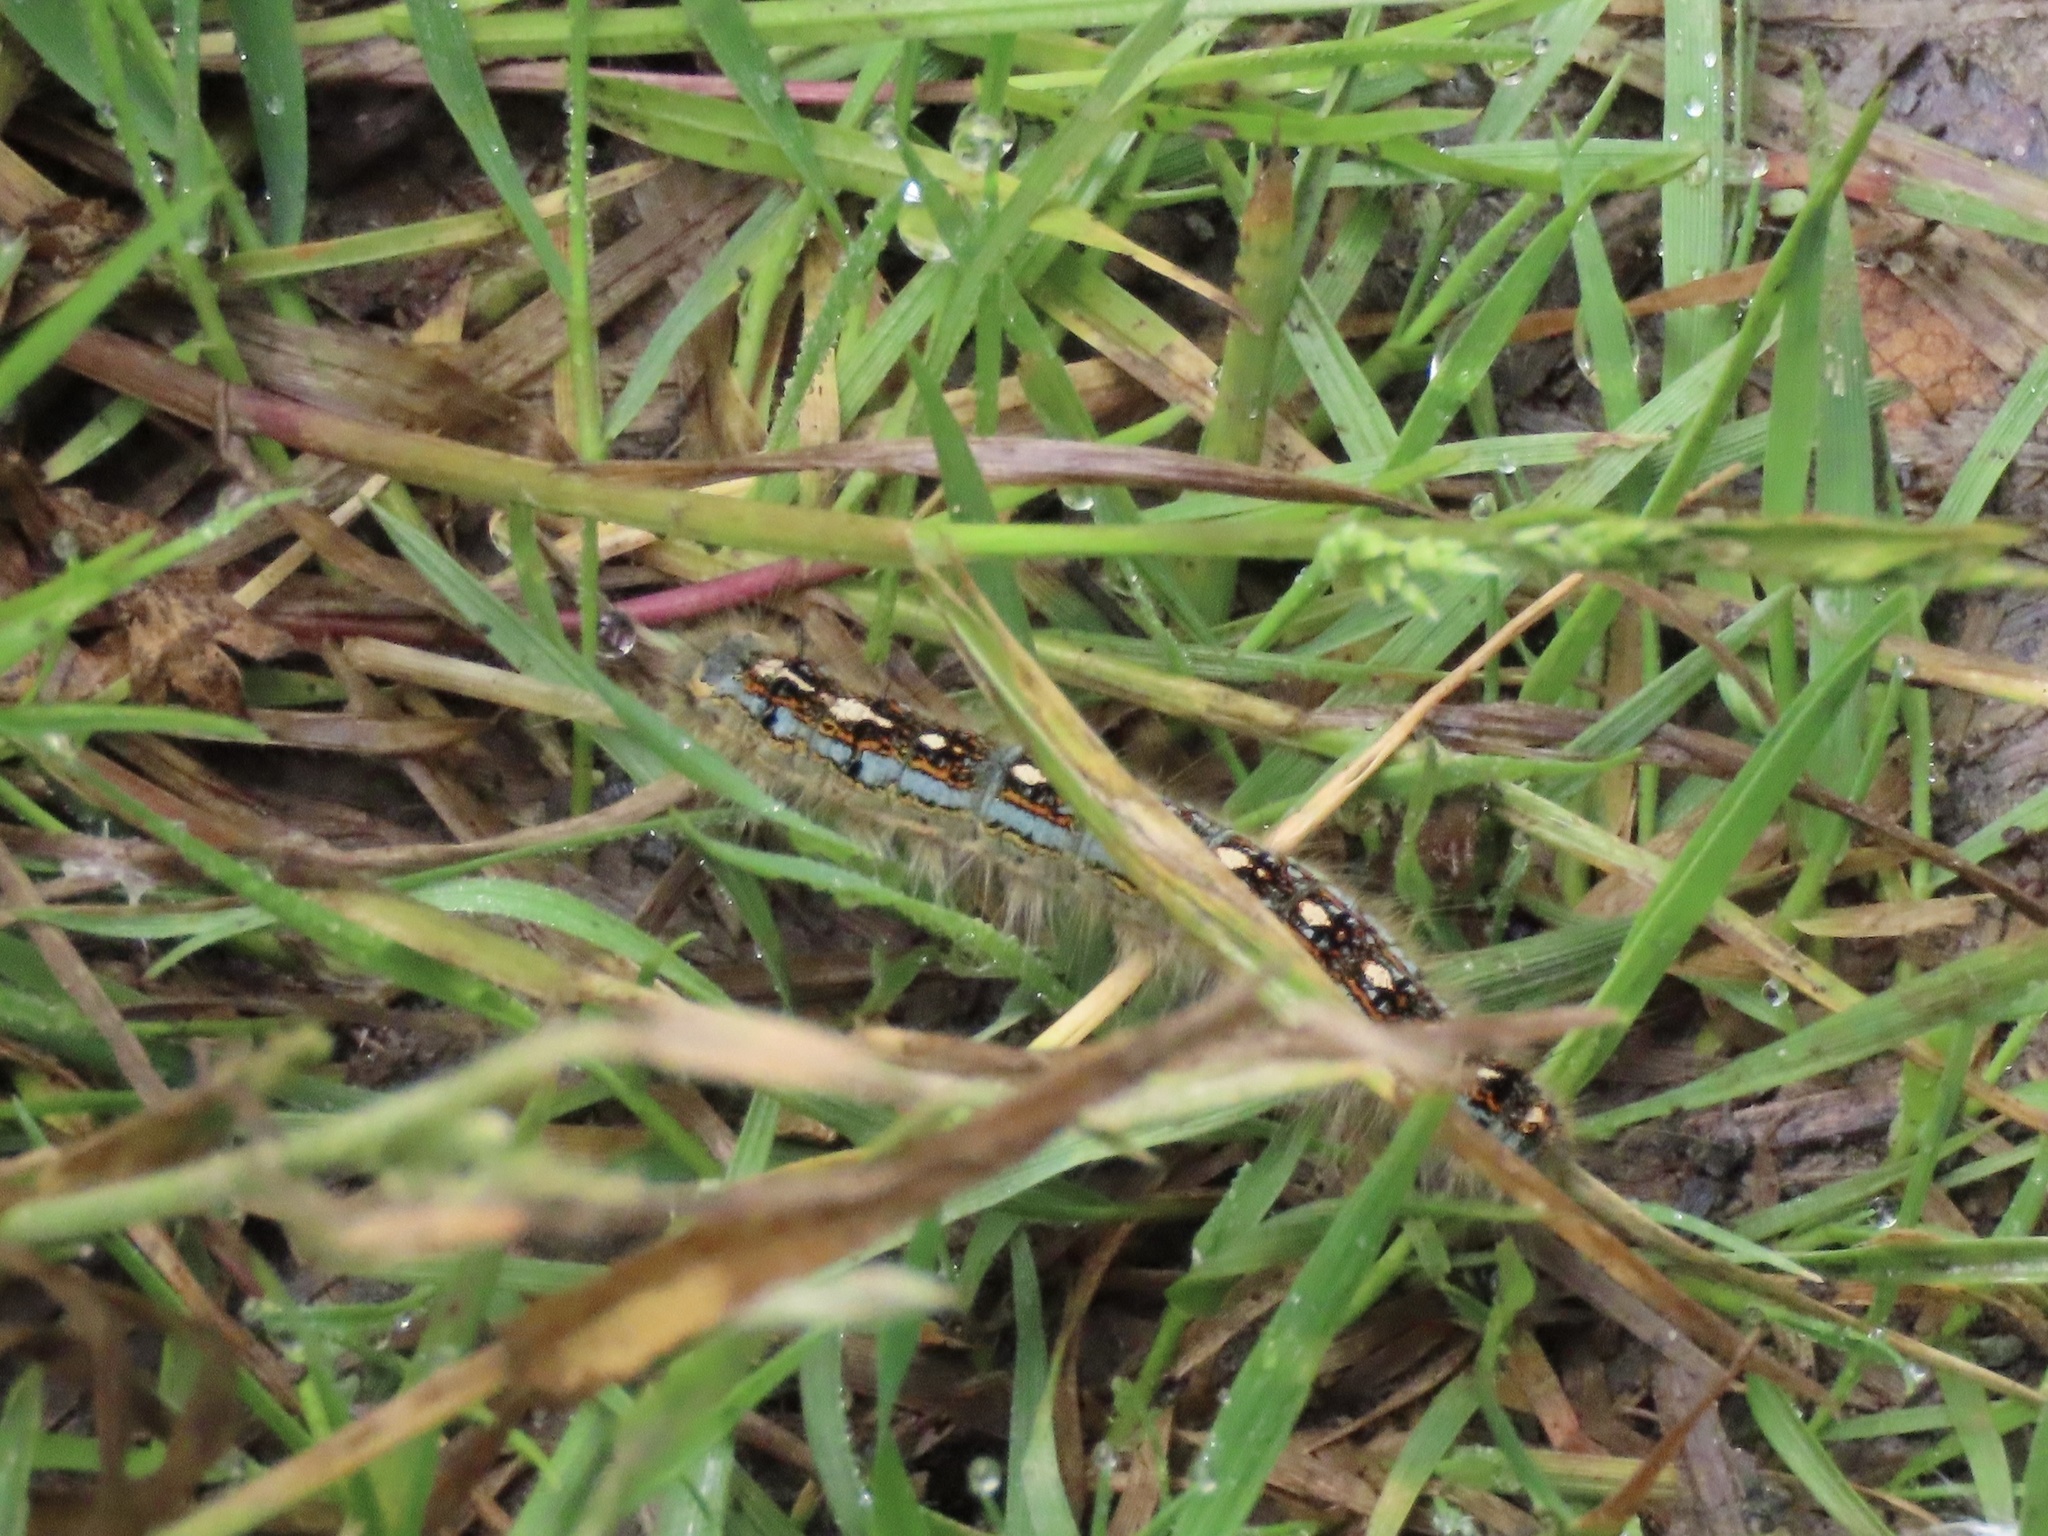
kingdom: Animalia
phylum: Arthropoda
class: Insecta
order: Lepidoptera
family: Lasiocampidae
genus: Malacosoma
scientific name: Malacosoma disstria
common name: Forest tent caterpillar
